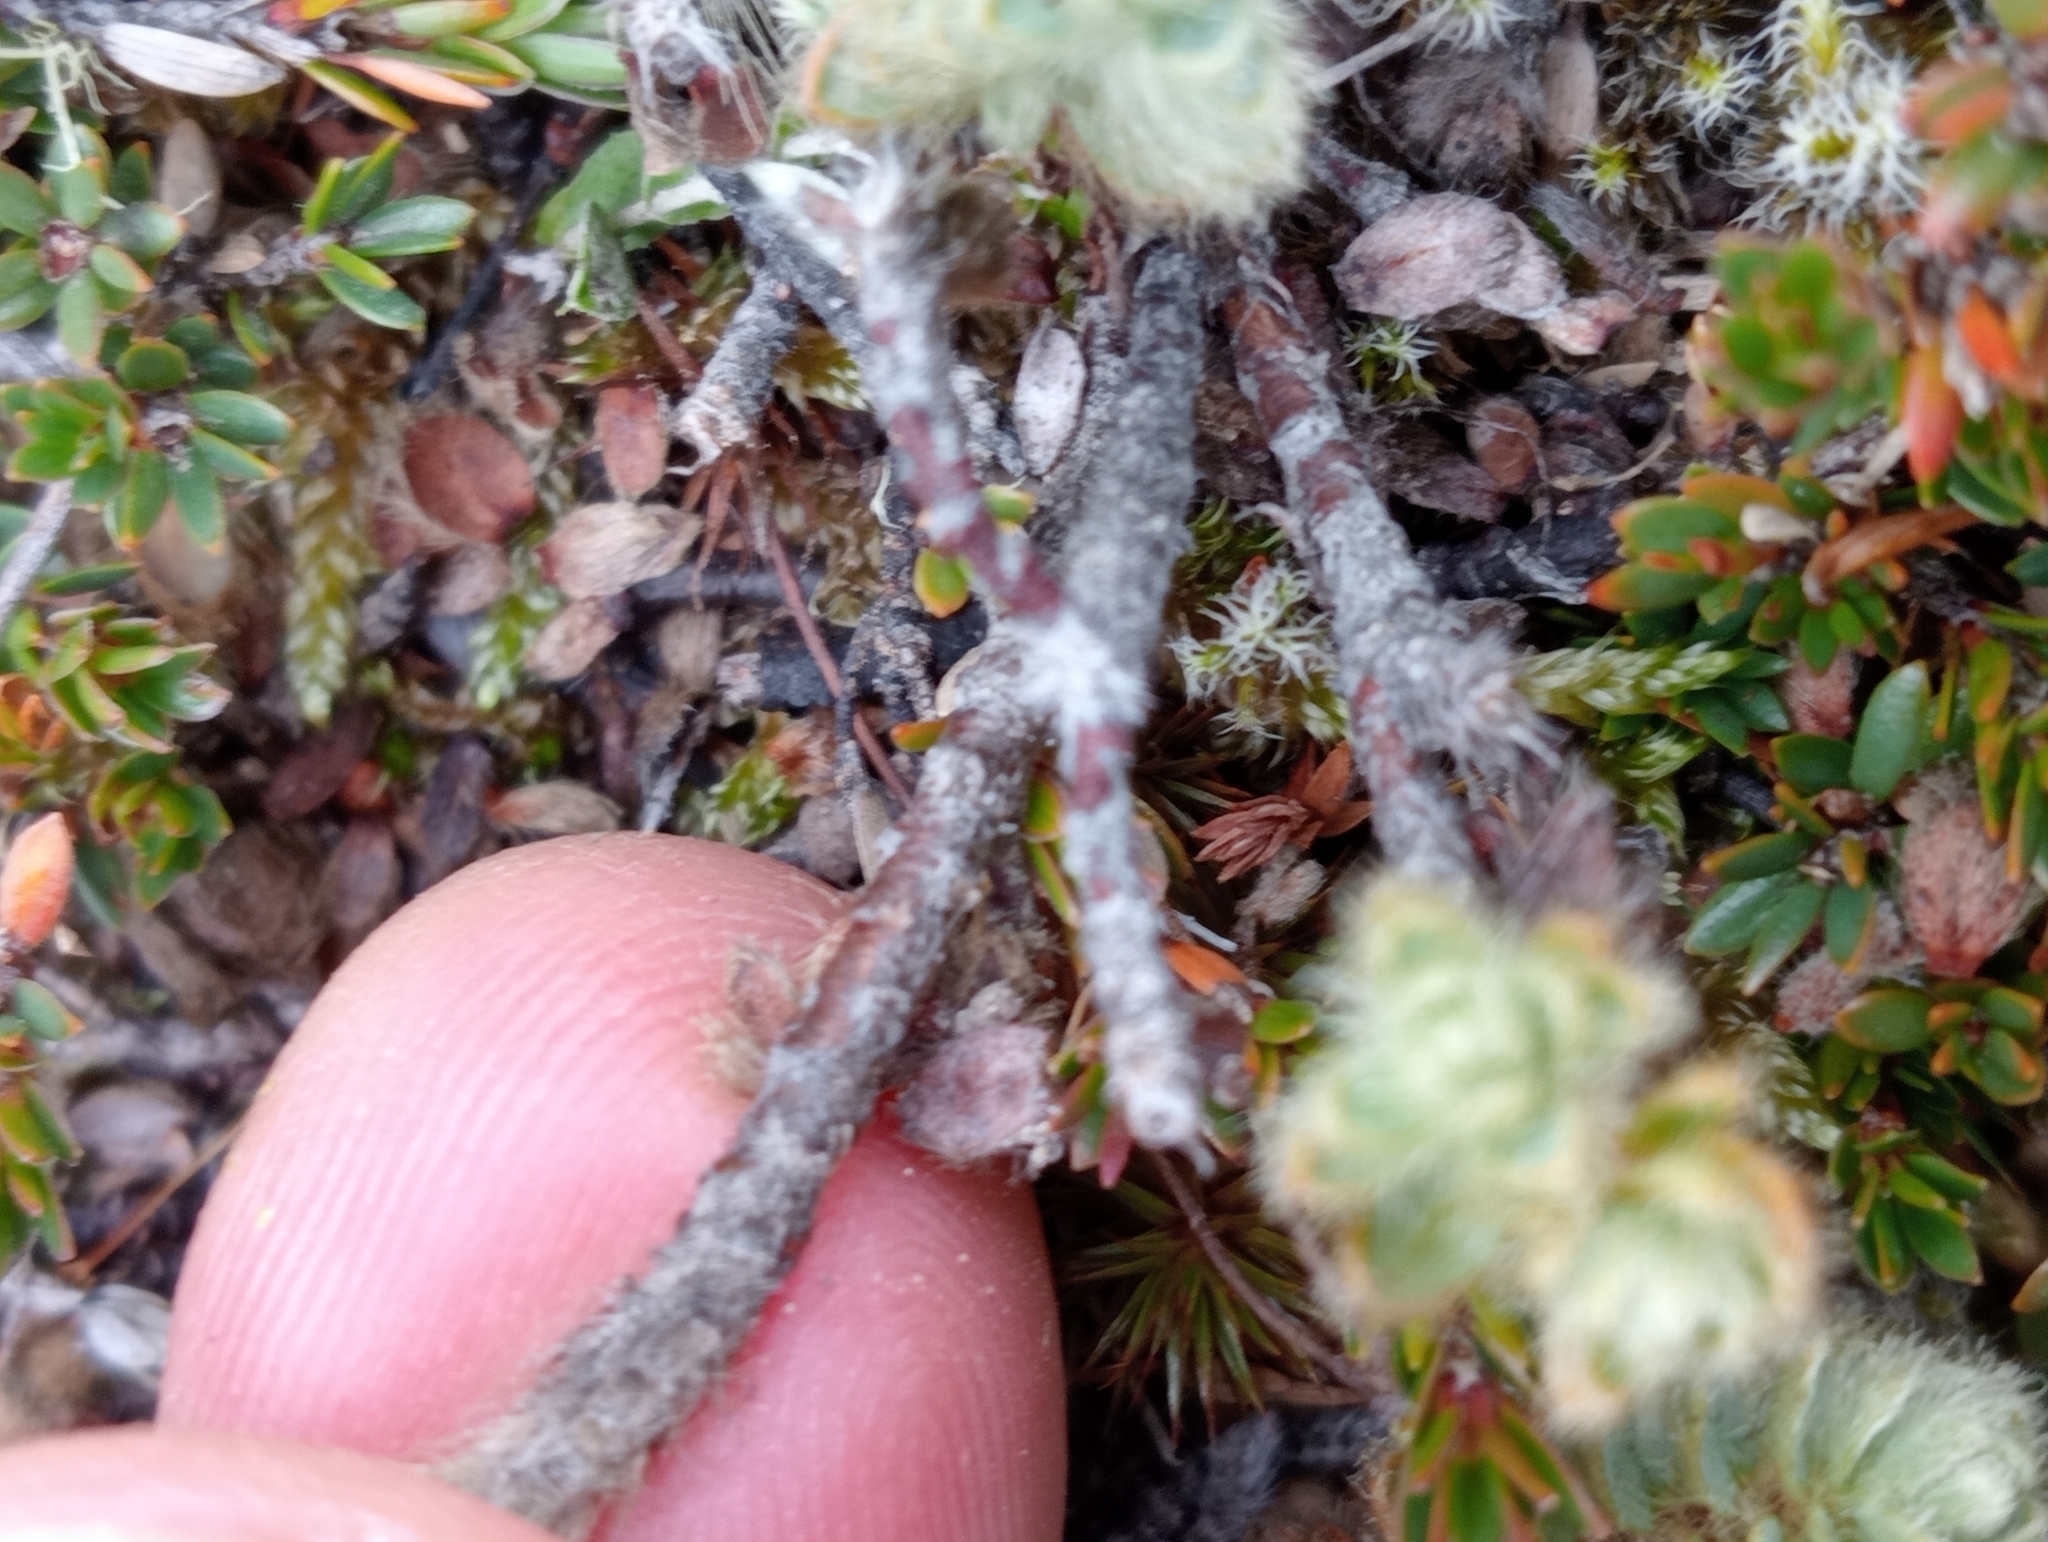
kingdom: Plantae
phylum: Tracheophyta
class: Magnoliopsida
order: Malvales
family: Thymelaeaceae
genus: Pimelea
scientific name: Pimelea mesoa
